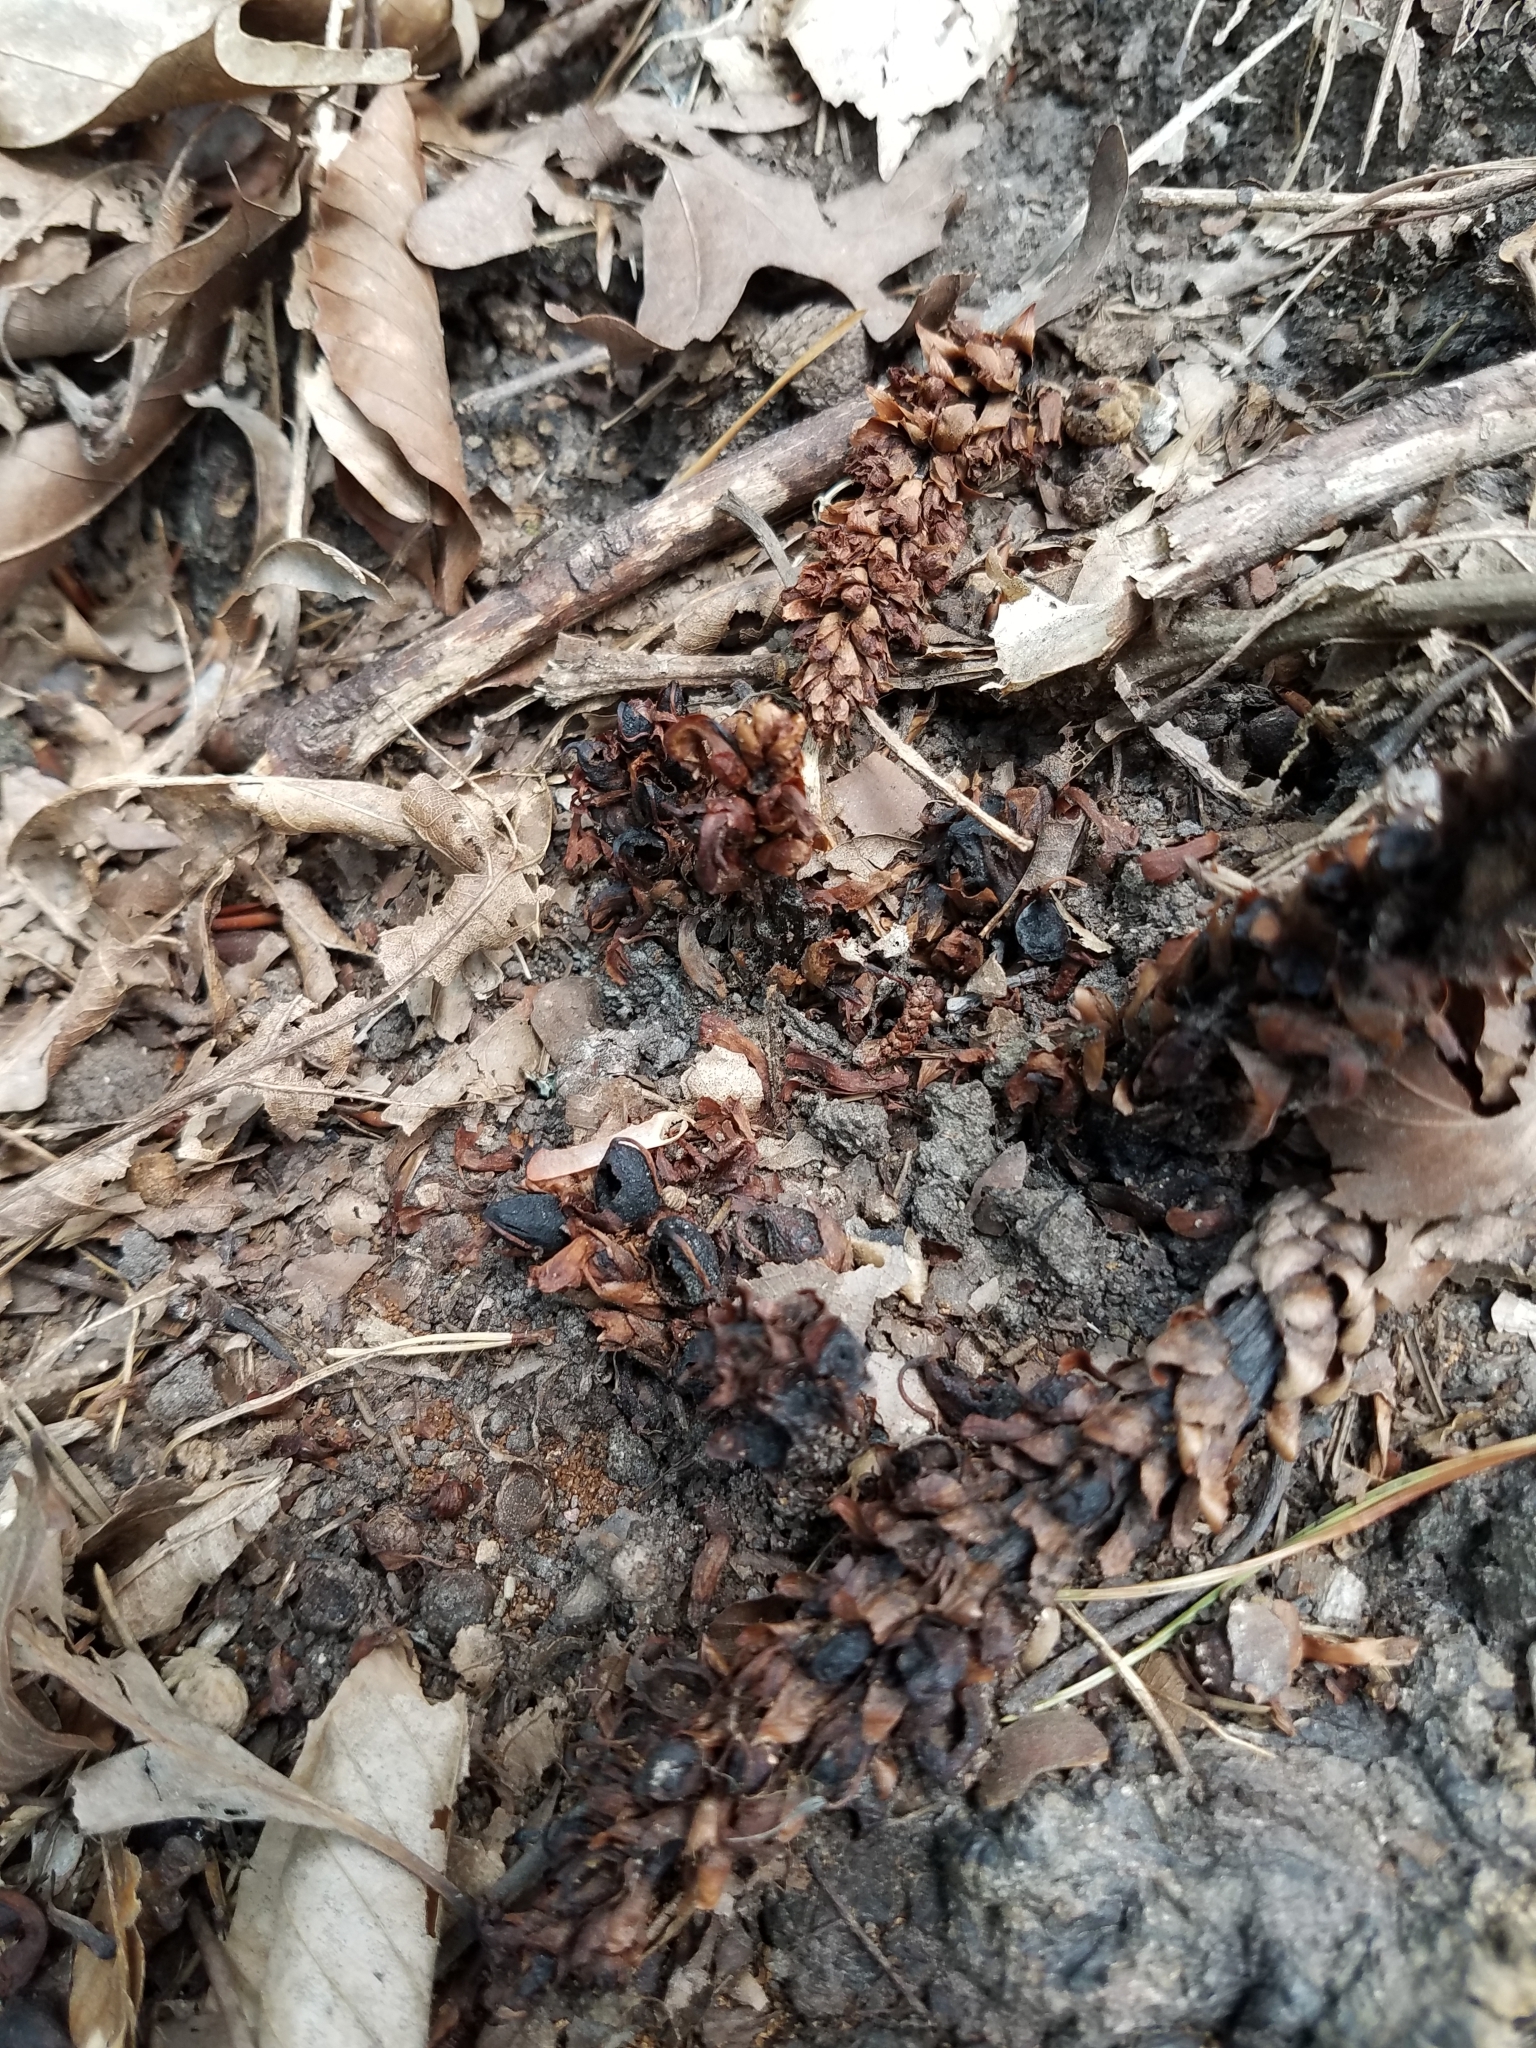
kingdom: Plantae
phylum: Tracheophyta
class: Magnoliopsida
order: Lamiales
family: Orobanchaceae
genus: Conopholis
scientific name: Conopholis americana
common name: American cancer-root
